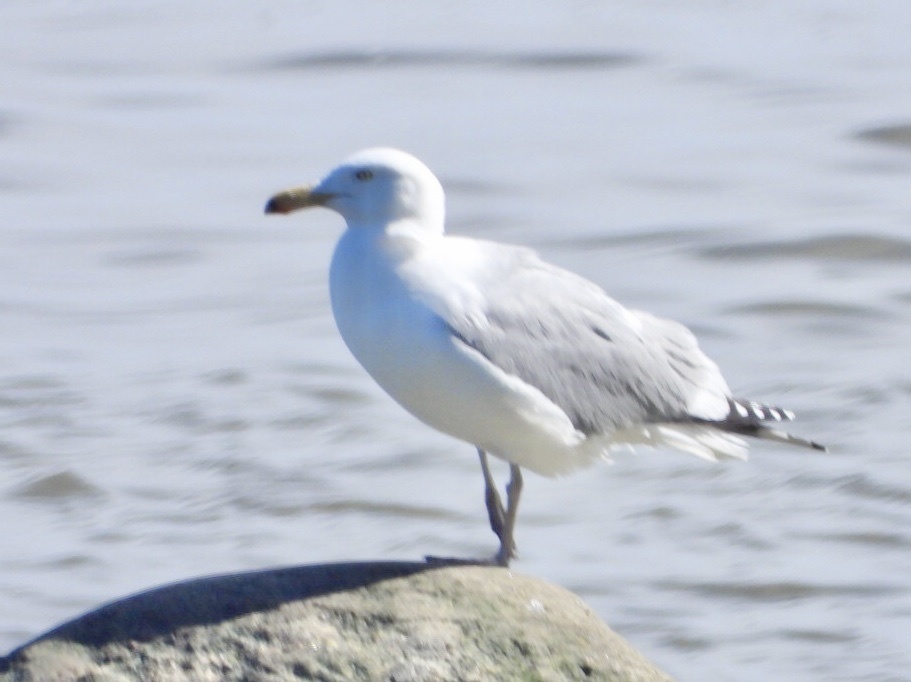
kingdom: Animalia
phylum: Chordata
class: Aves
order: Charadriiformes
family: Laridae
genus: Larus
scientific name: Larus argentatus
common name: Herring gull
